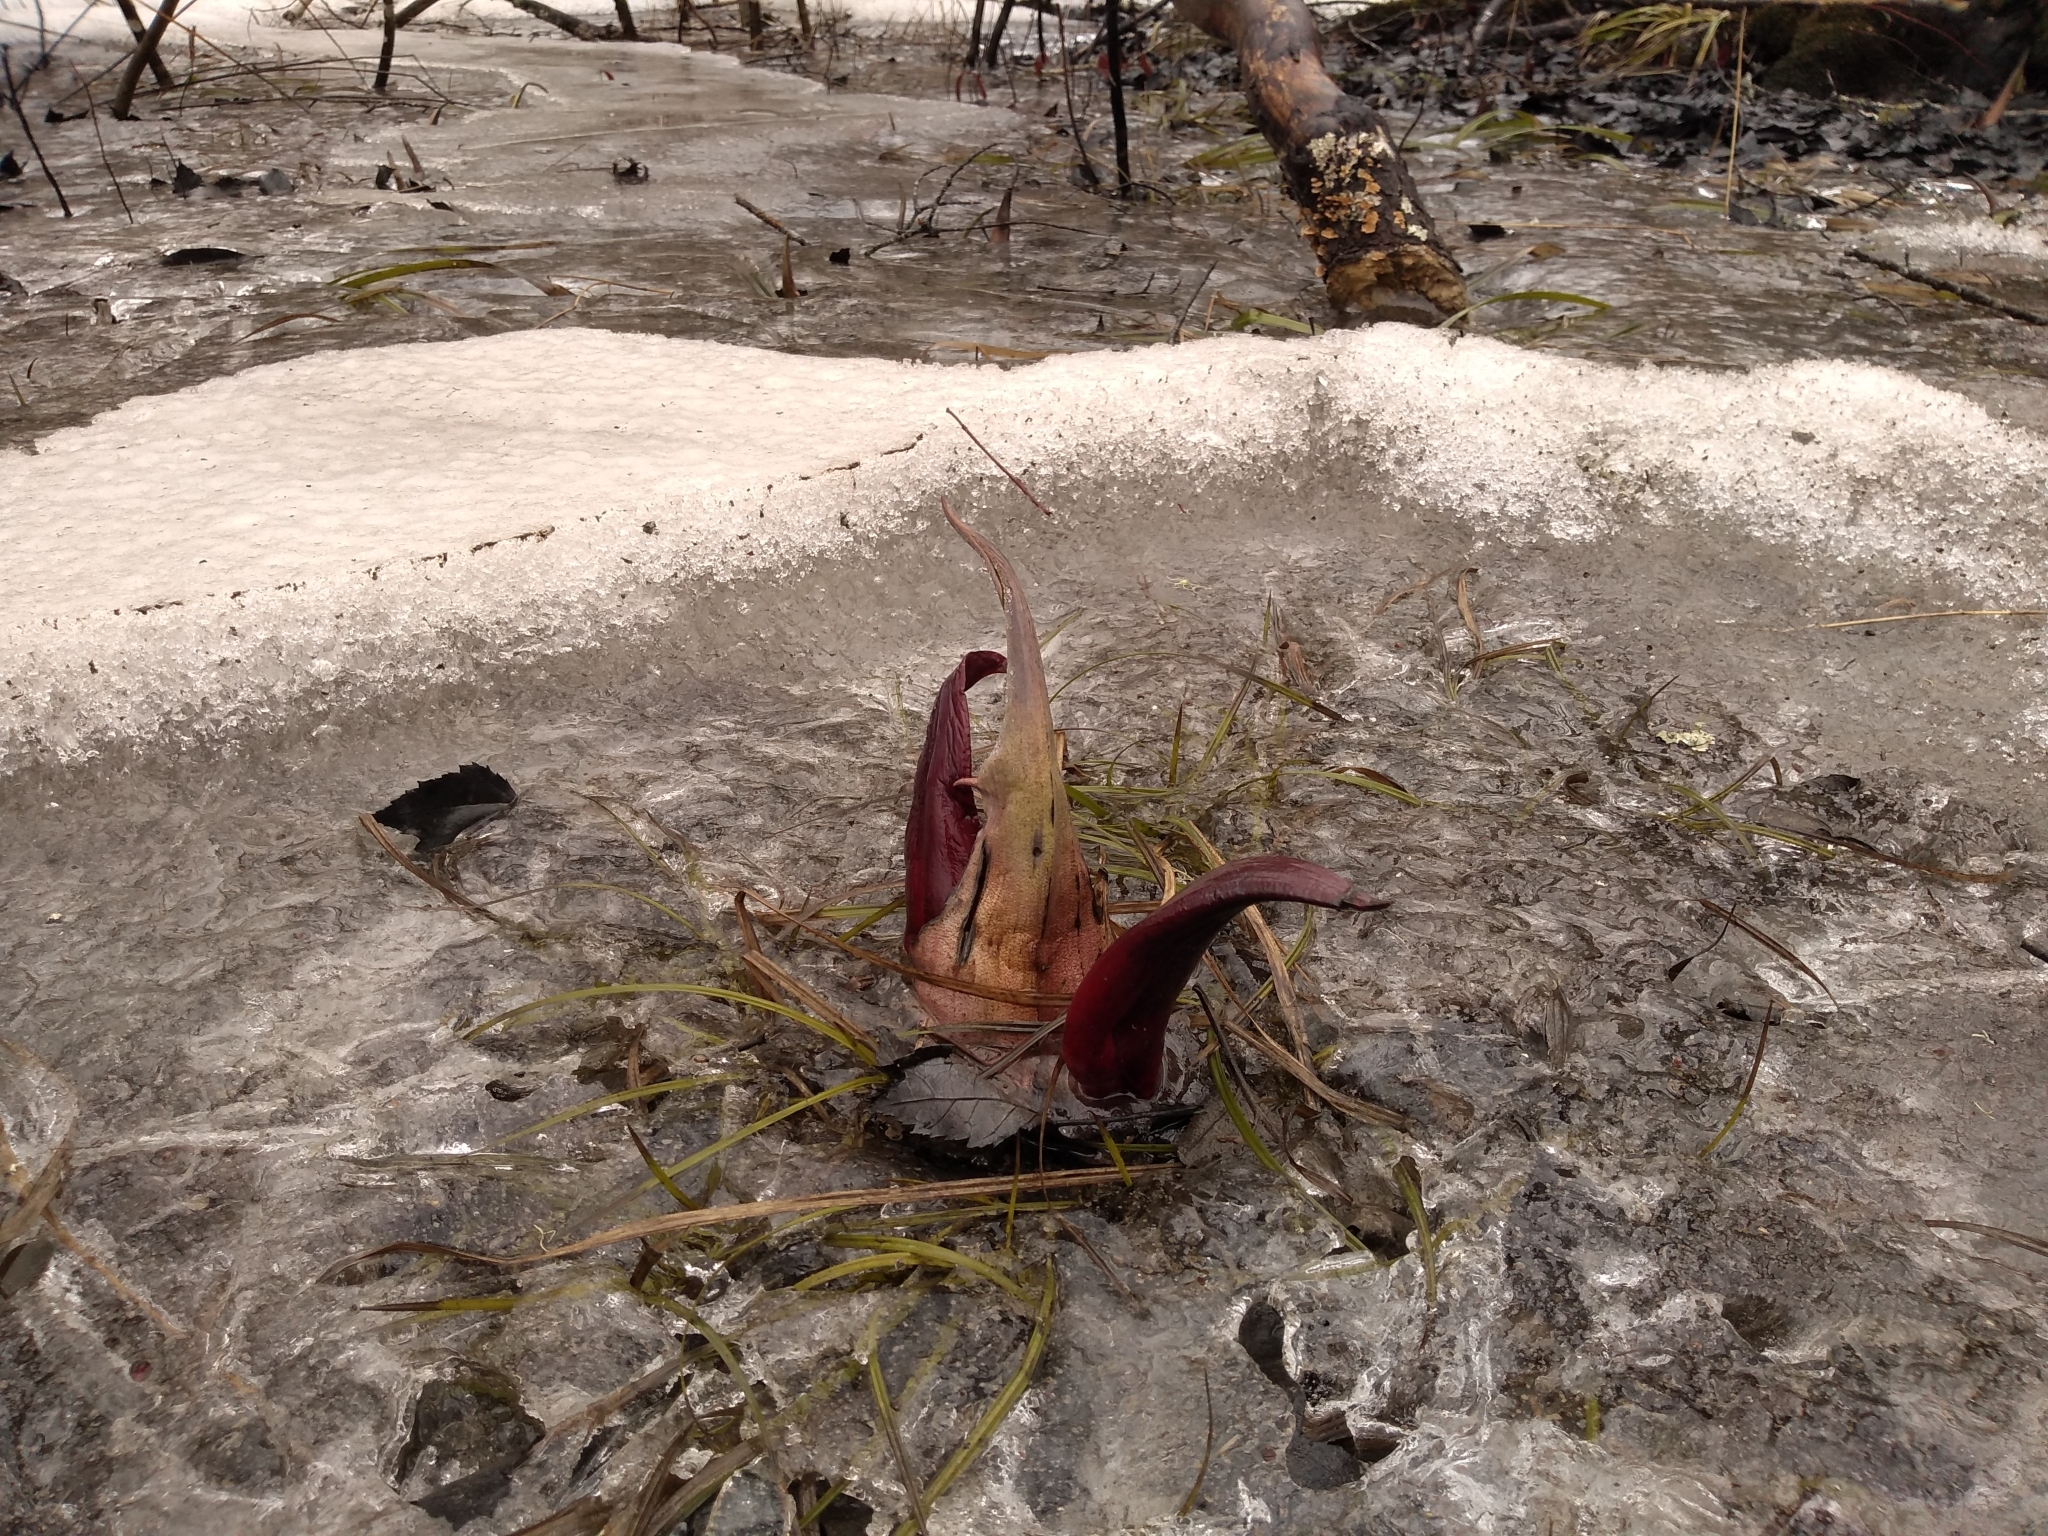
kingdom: Plantae
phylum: Tracheophyta
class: Liliopsida
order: Alismatales
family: Araceae
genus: Symplocarpus
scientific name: Symplocarpus foetidus
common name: Eastern skunk cabbage
